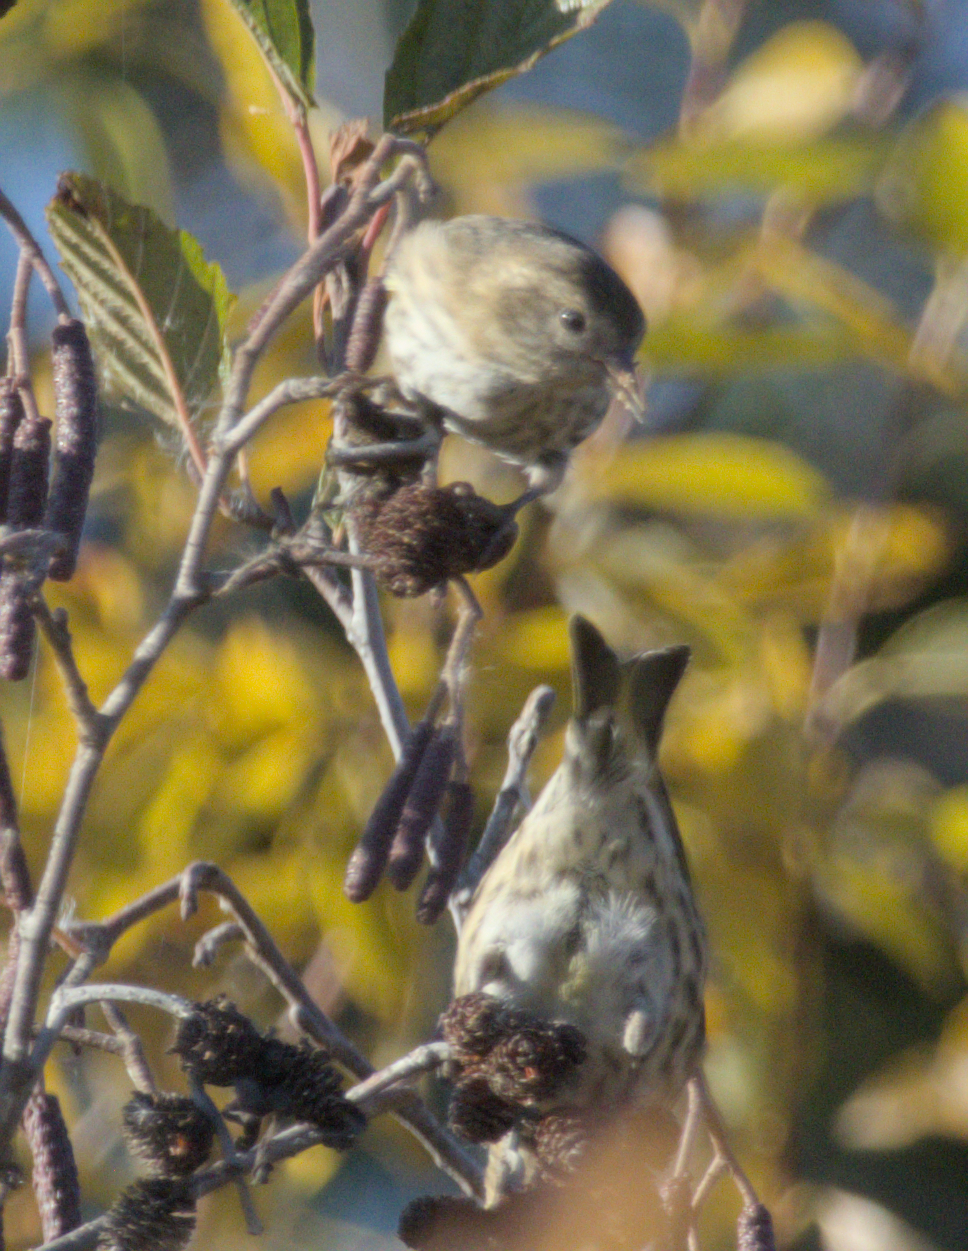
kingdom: Animalia
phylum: Chordata
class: Aves
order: Passeriformes
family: Fringillidae
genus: Spinus
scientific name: Spinus pinus
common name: Pine siskin
